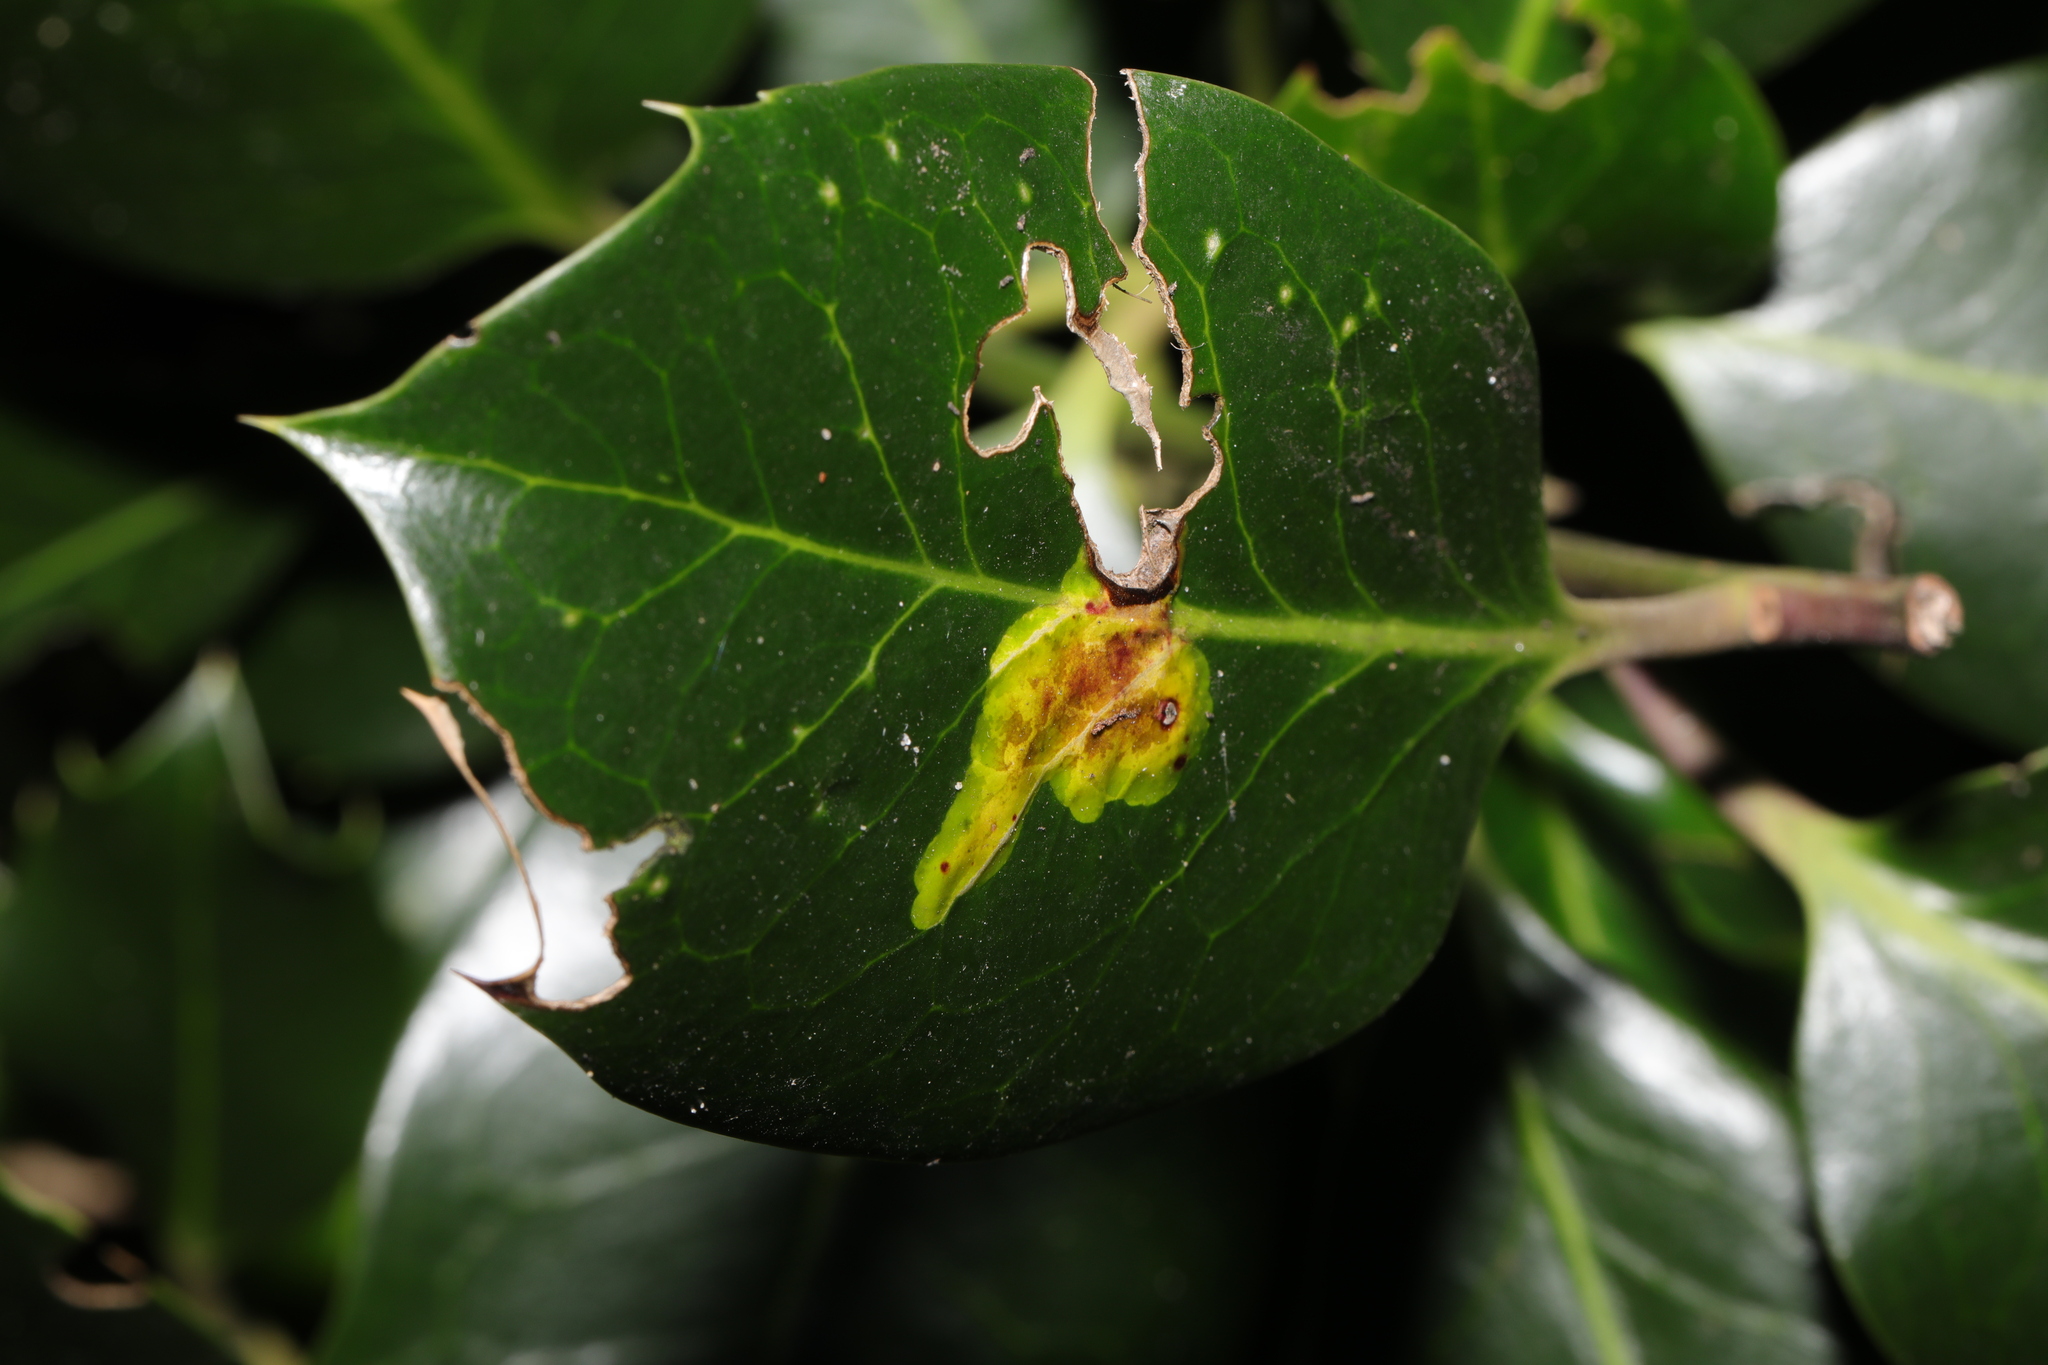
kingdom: Animalia
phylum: Arthropoda
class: Insecta
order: Diptera
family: Agromyzidae
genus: Phytomyza
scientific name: Phytomyza ilicis
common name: Holly leafminer
